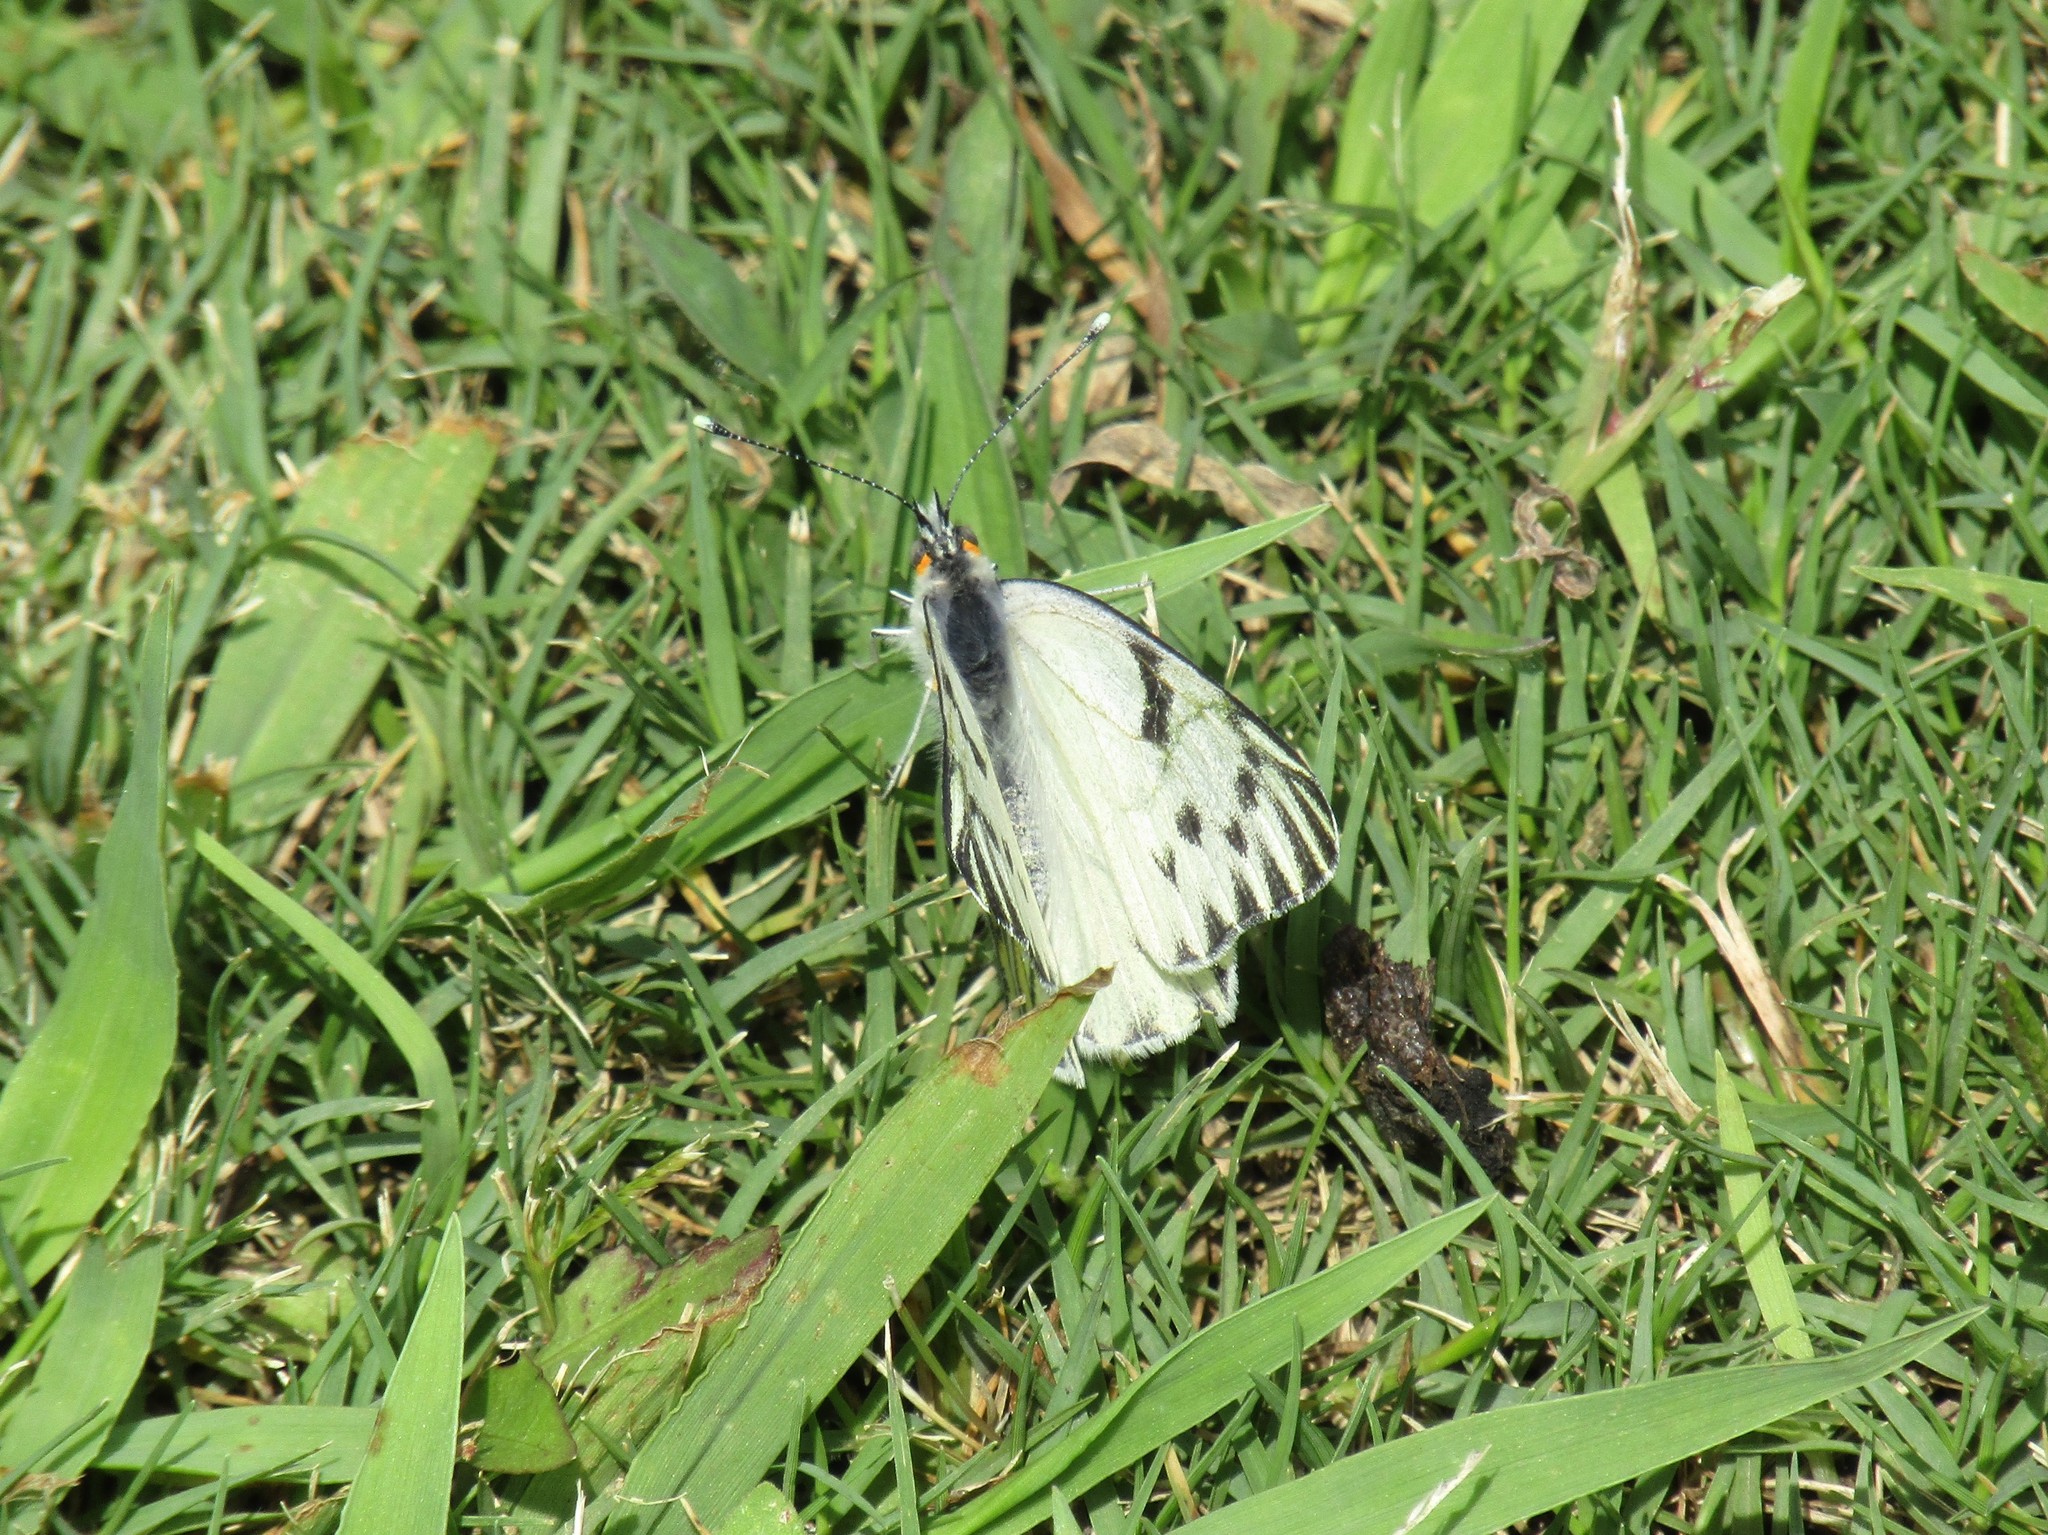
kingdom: Animalia
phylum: Arthropoda
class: Insecta
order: Lepidoptera
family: Pieridae
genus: Tatochila
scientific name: Tatochila autodice
